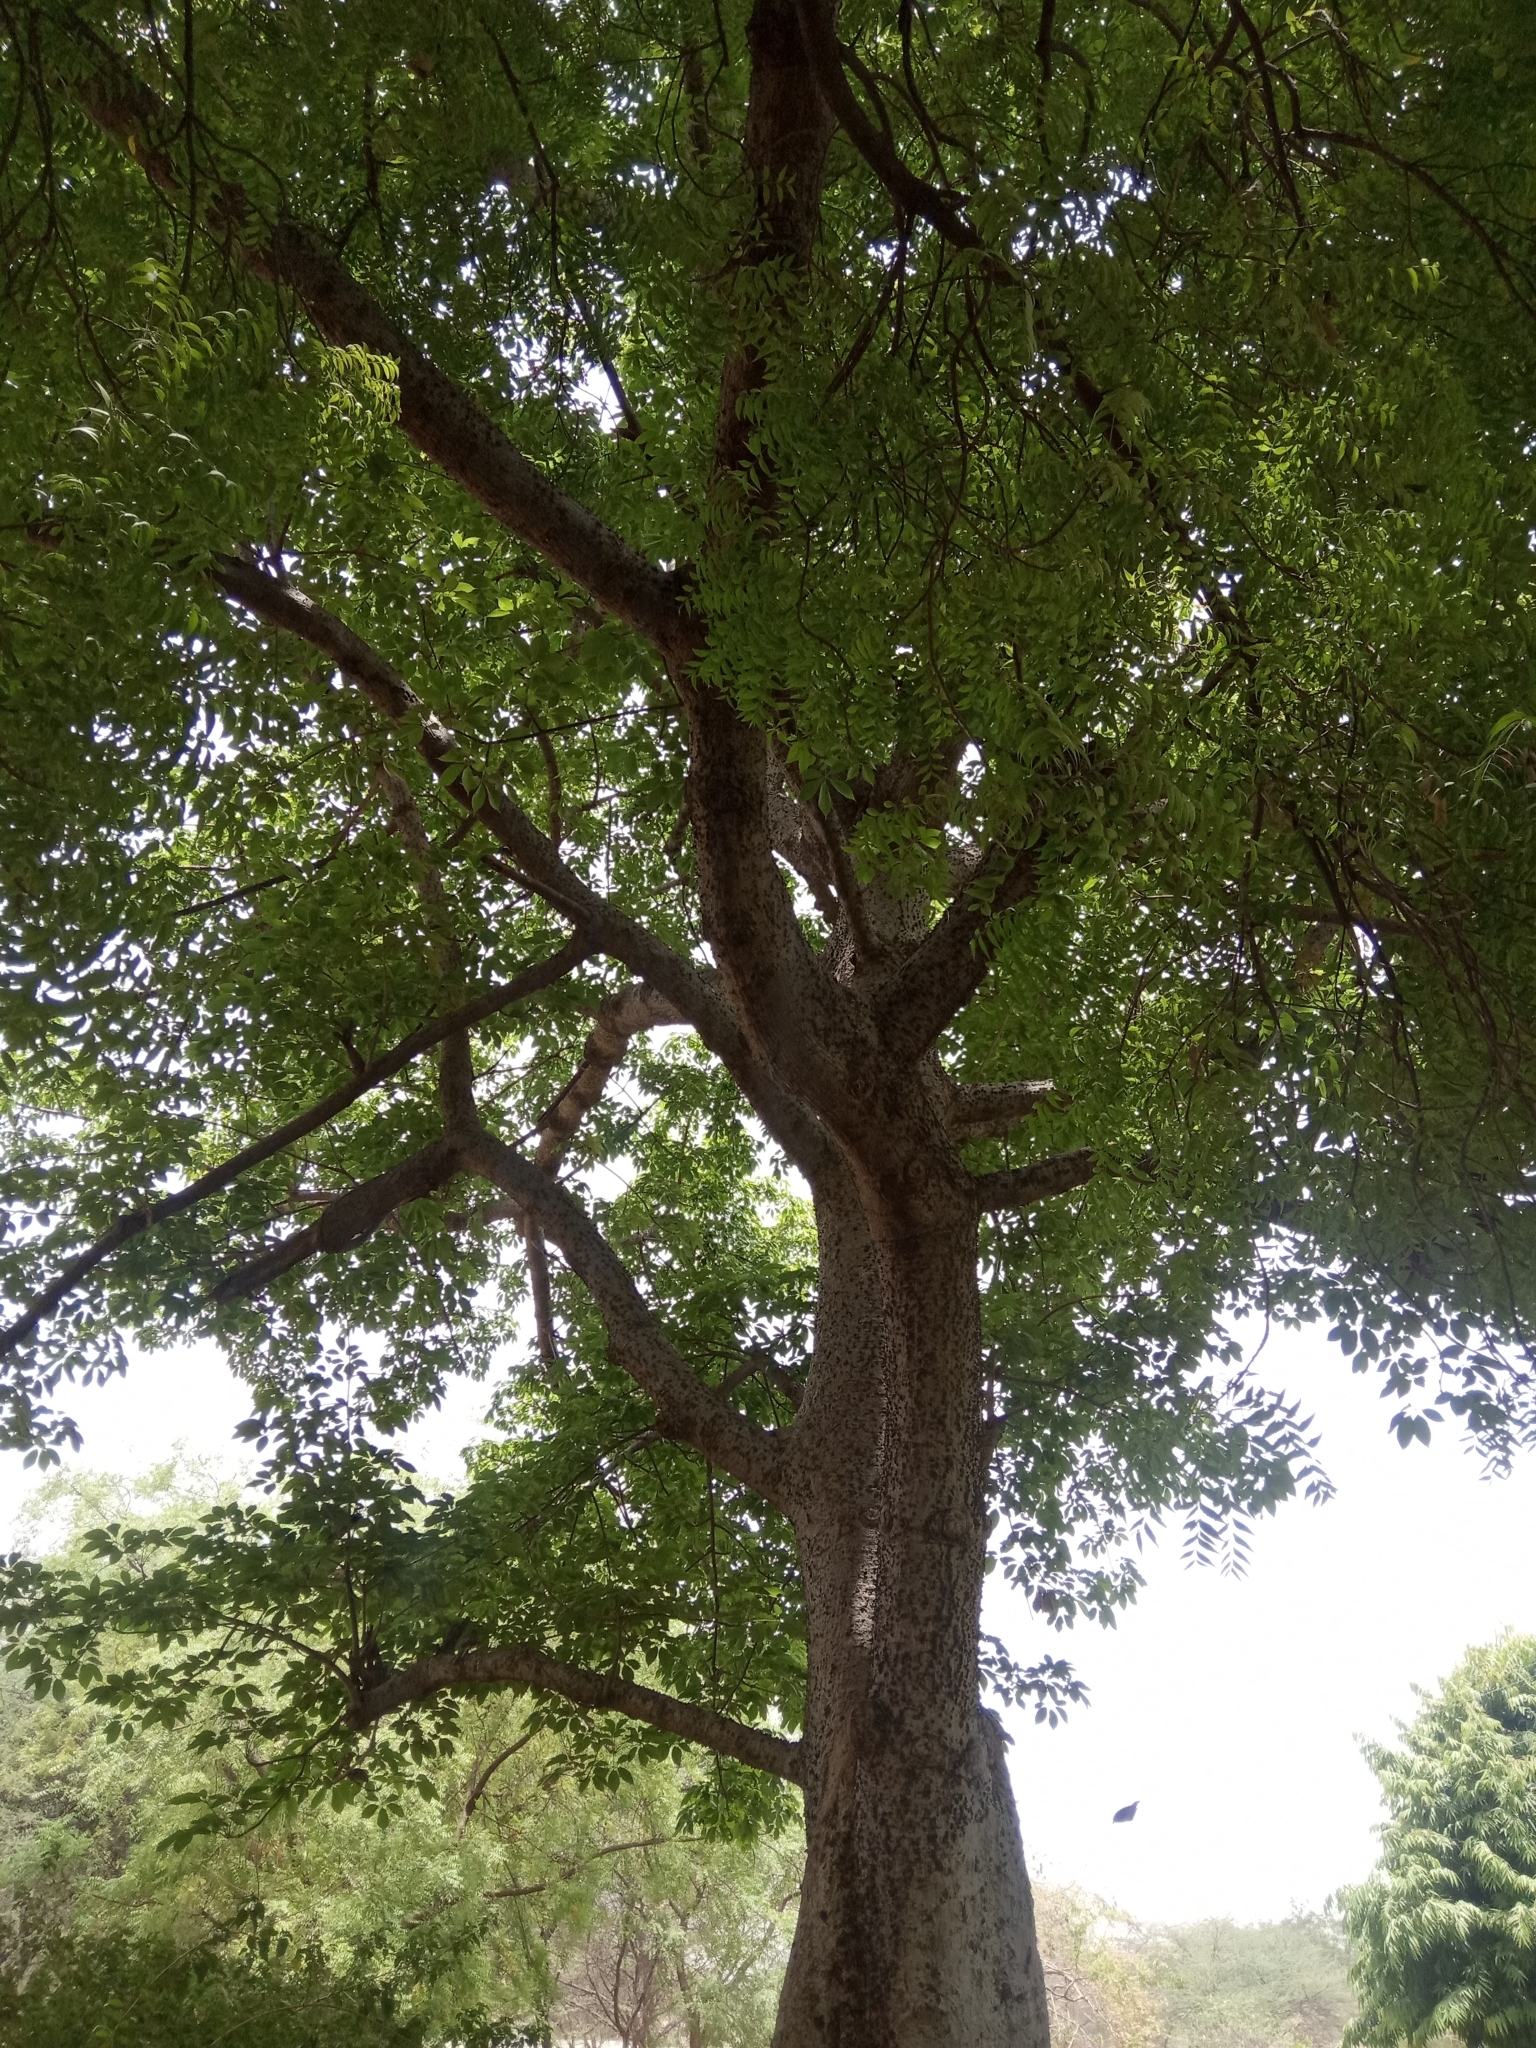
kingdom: Plantae
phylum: Tracheophyta
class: Magnoliopsida
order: Malvales
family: Malvaceae
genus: Bombax
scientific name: Bombax ceiba
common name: Northern-cottonwood
